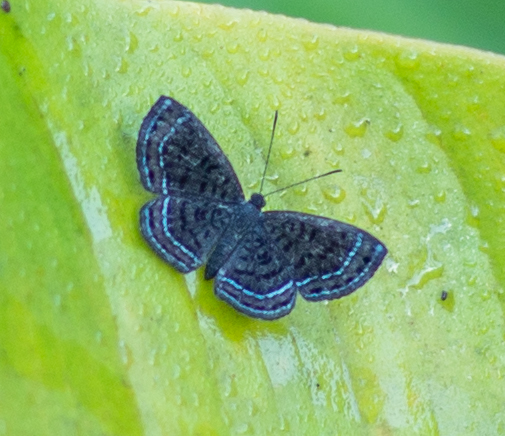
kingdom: Animalia
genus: Charis
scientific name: Charis anius
